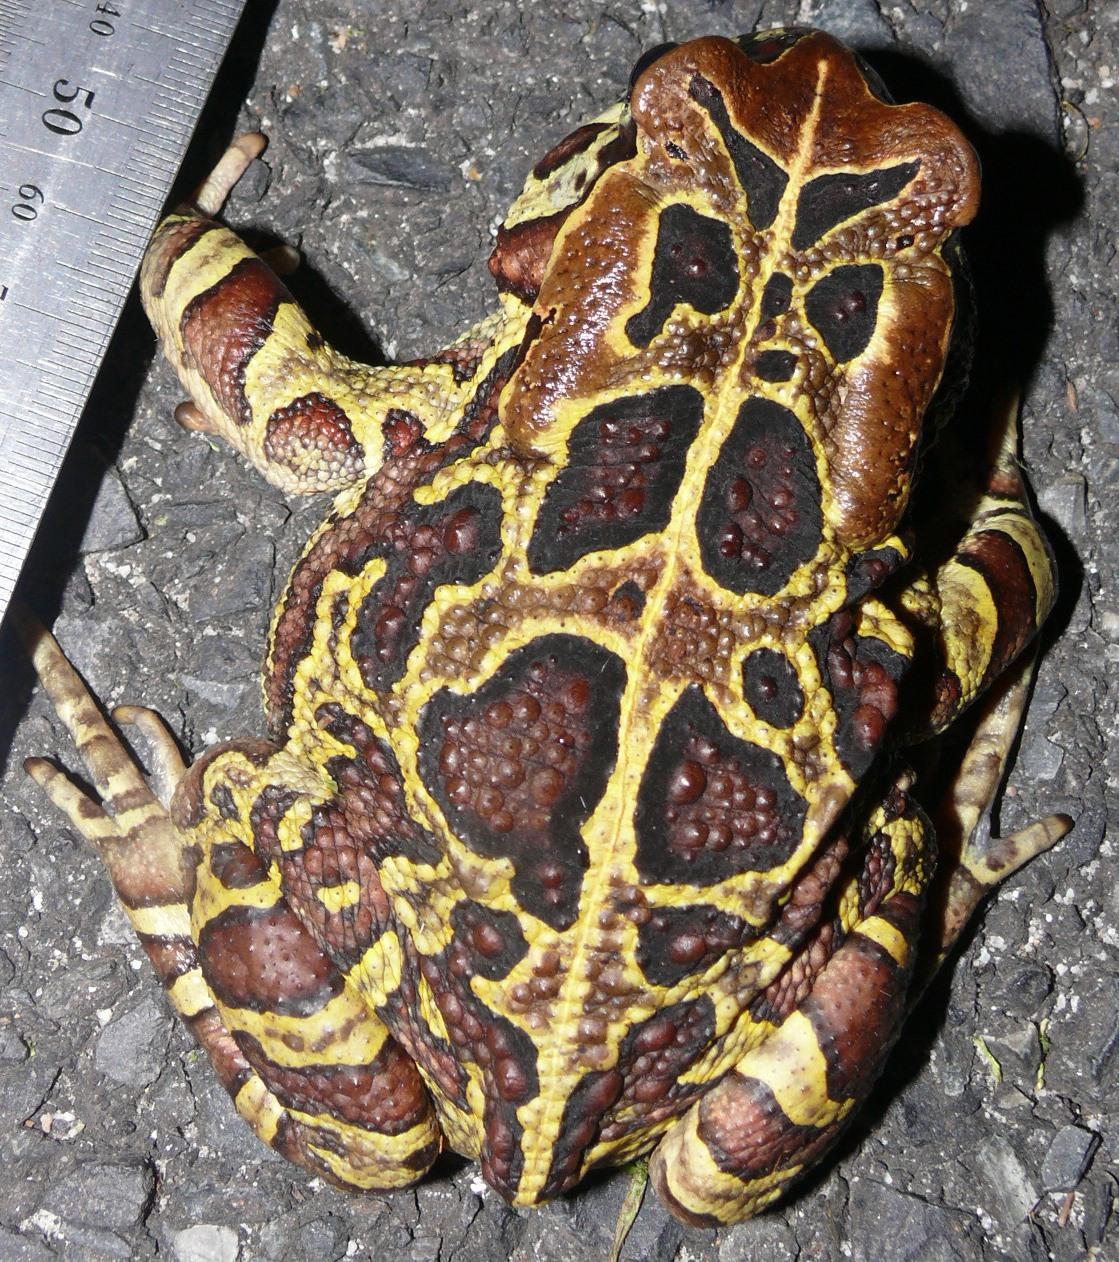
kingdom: Animalia
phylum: Chordata
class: Amphibia
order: Anura
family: Bufonidae
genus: Sclerophrys
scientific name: Sclerophrys pantherina
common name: Panther toad
